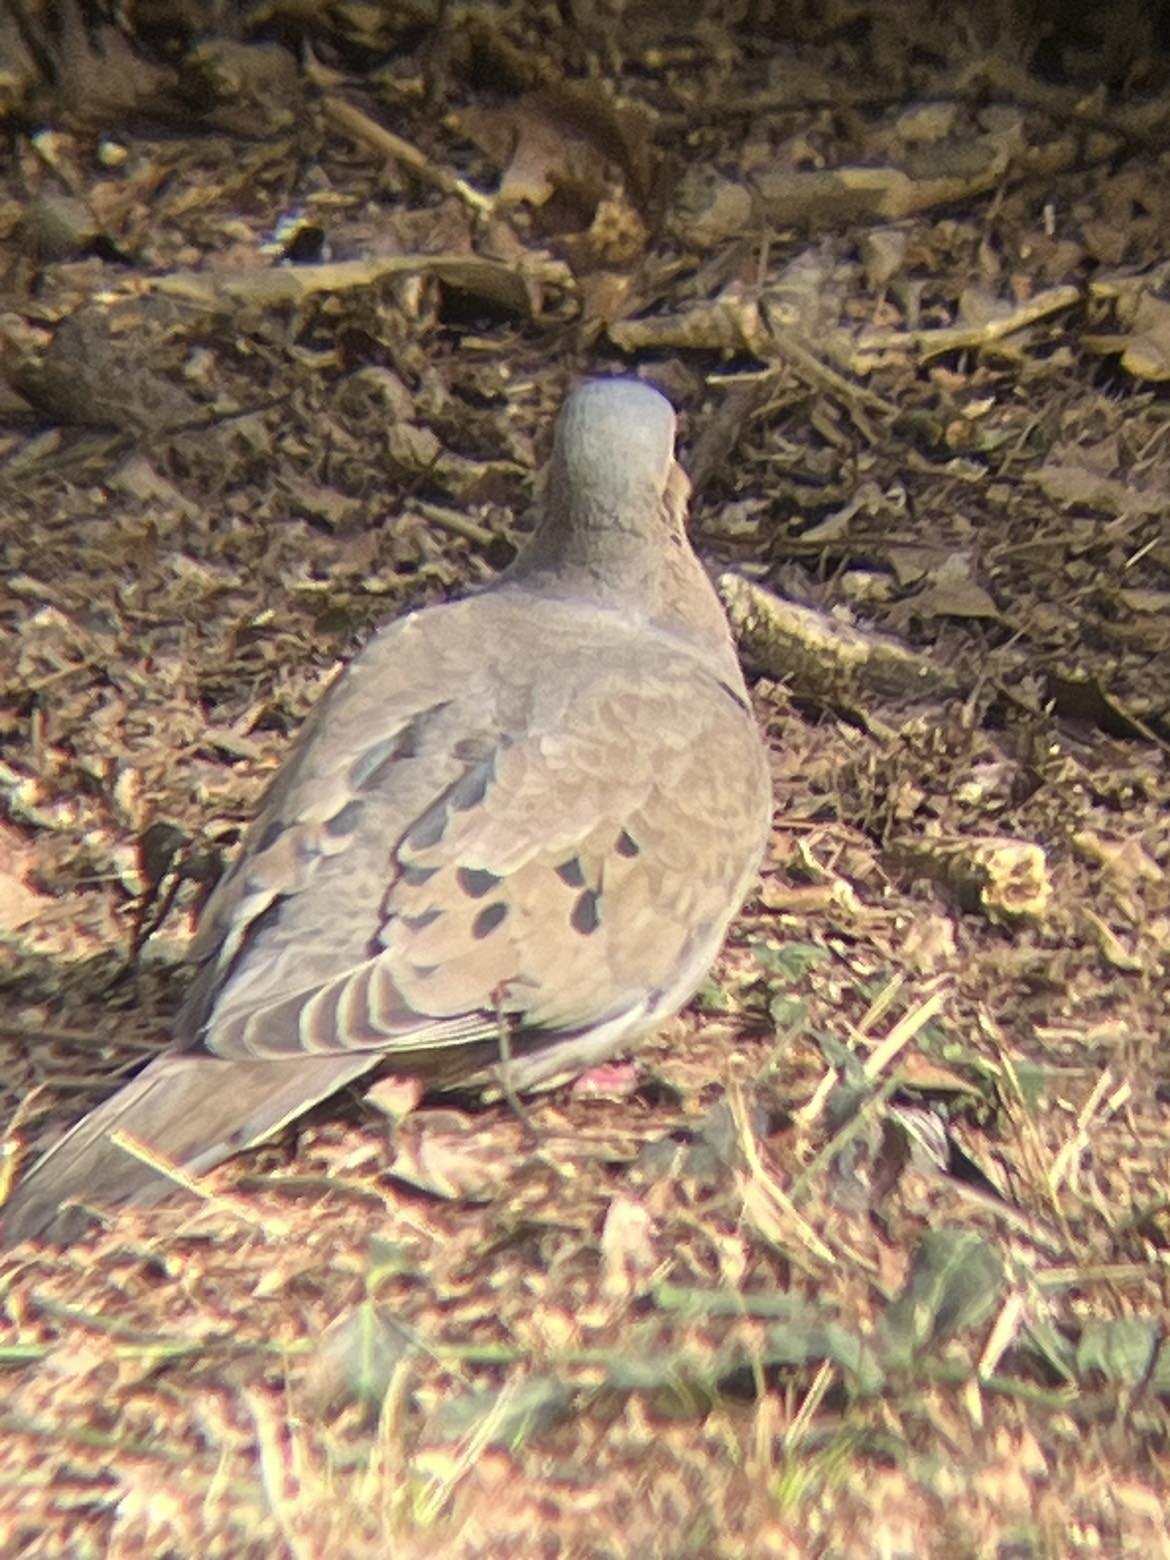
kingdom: Animalia
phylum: Chordata
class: Aves
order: Columbiformes
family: Columbidae
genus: Zenaida
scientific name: Zenaida macroura
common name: Mourning dove
